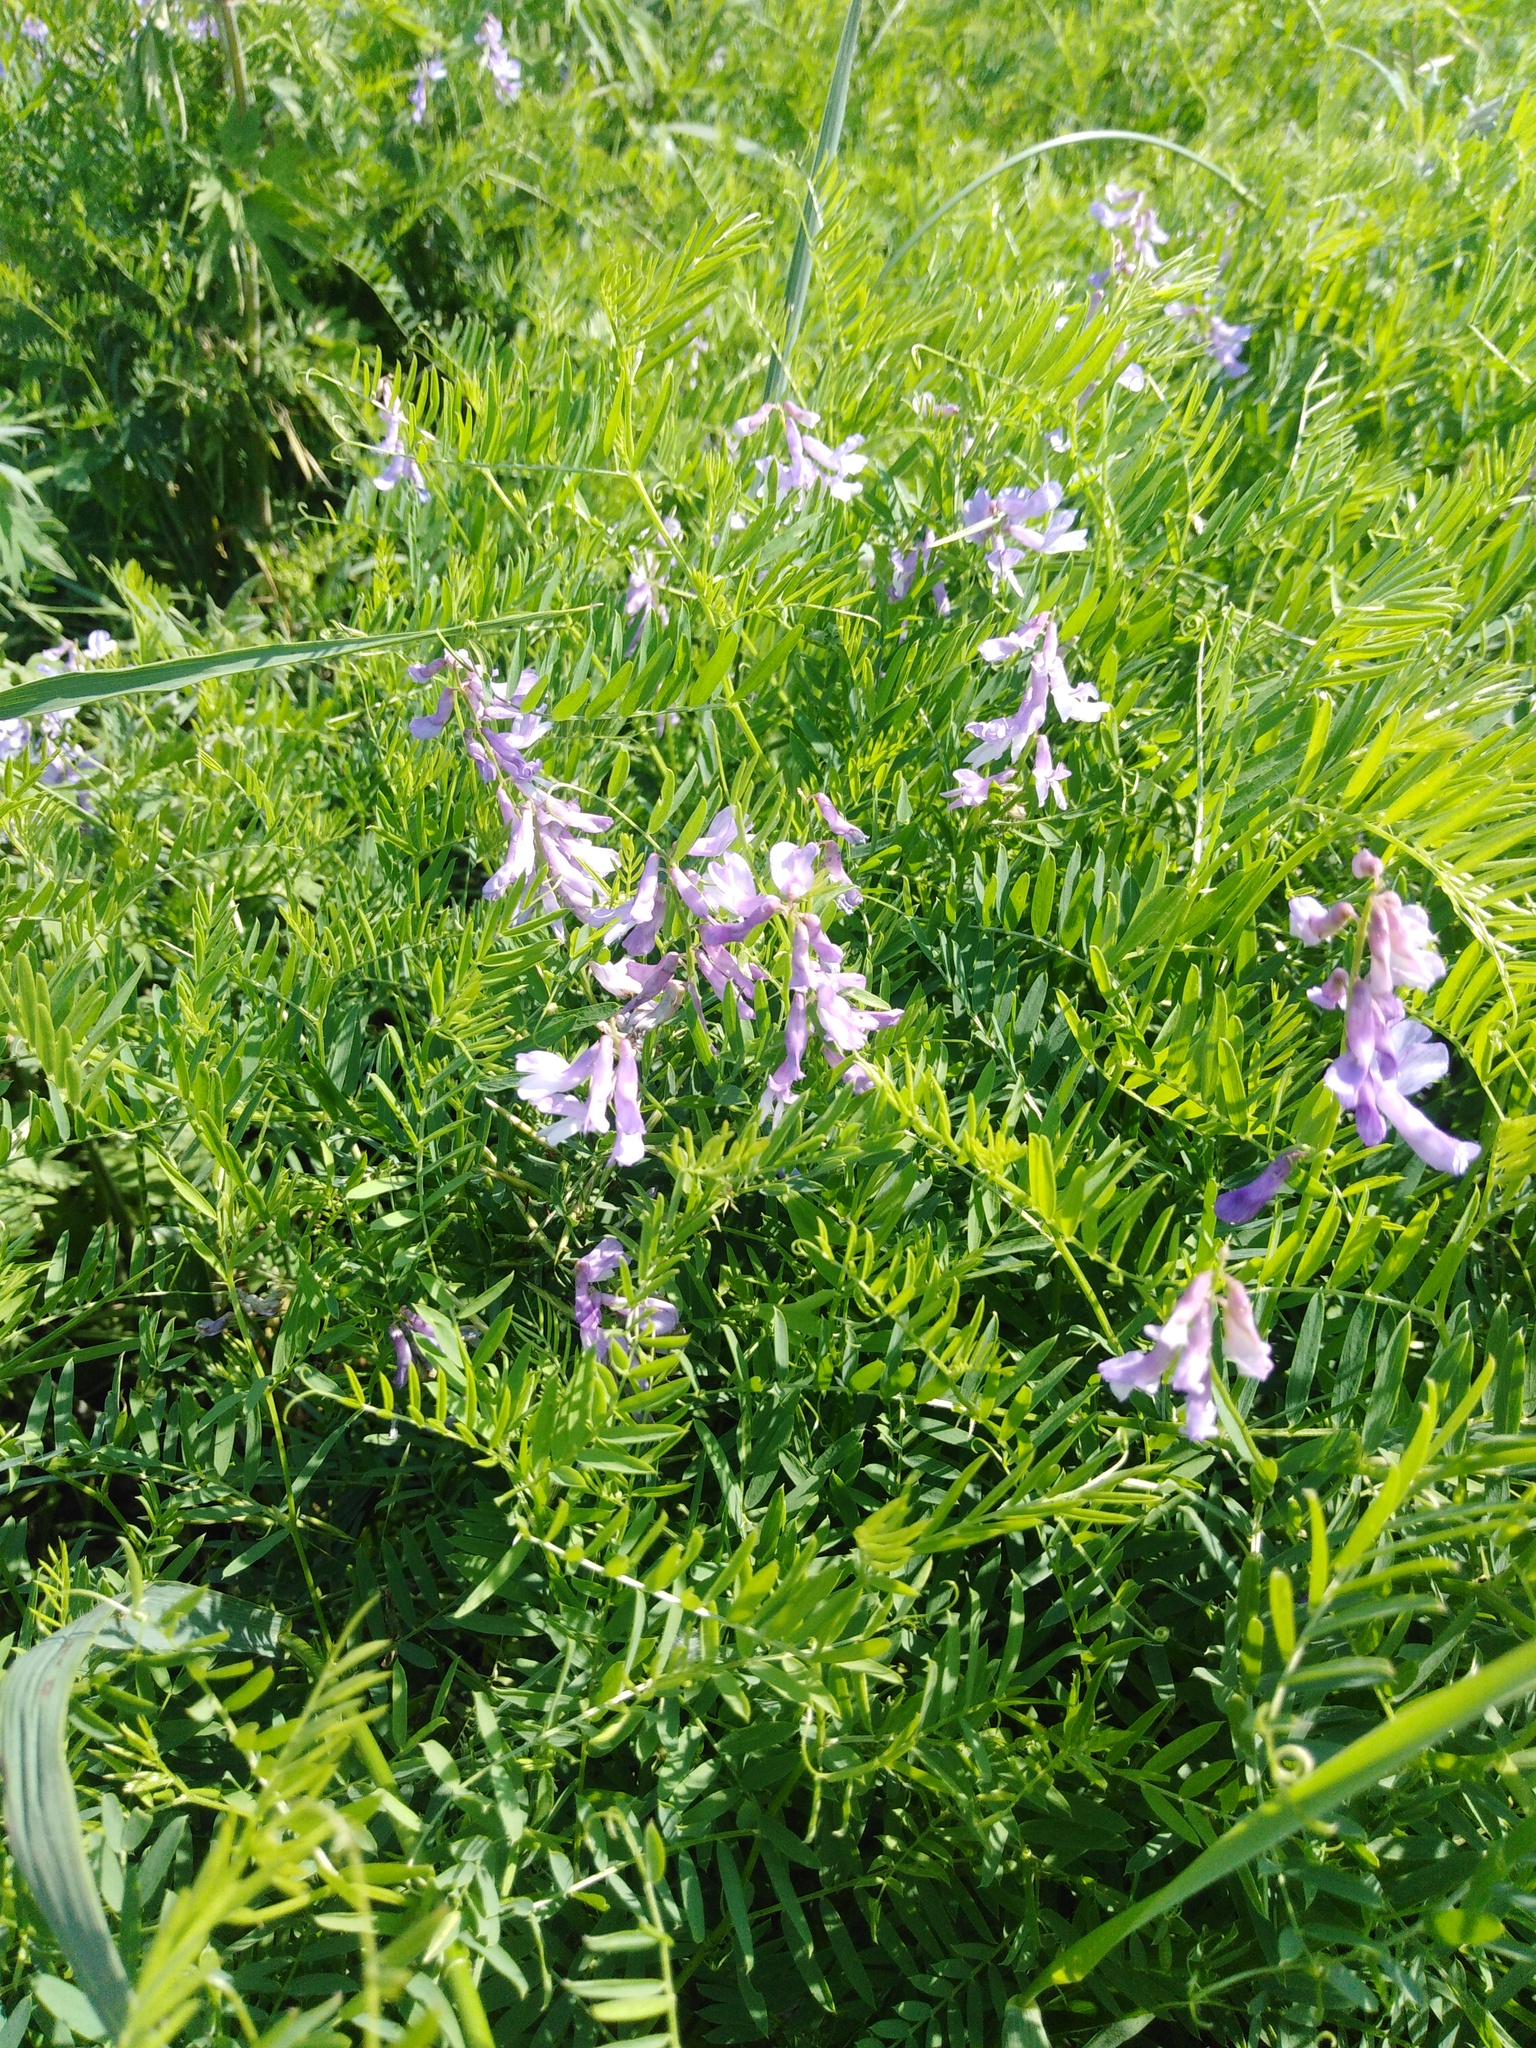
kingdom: Plantae
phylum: Tracheophyta
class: Magnoliopsida
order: Fabales
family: Fabaceae
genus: Vicia
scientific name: Vicia tenuifolia
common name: Fine-leaved vetch
